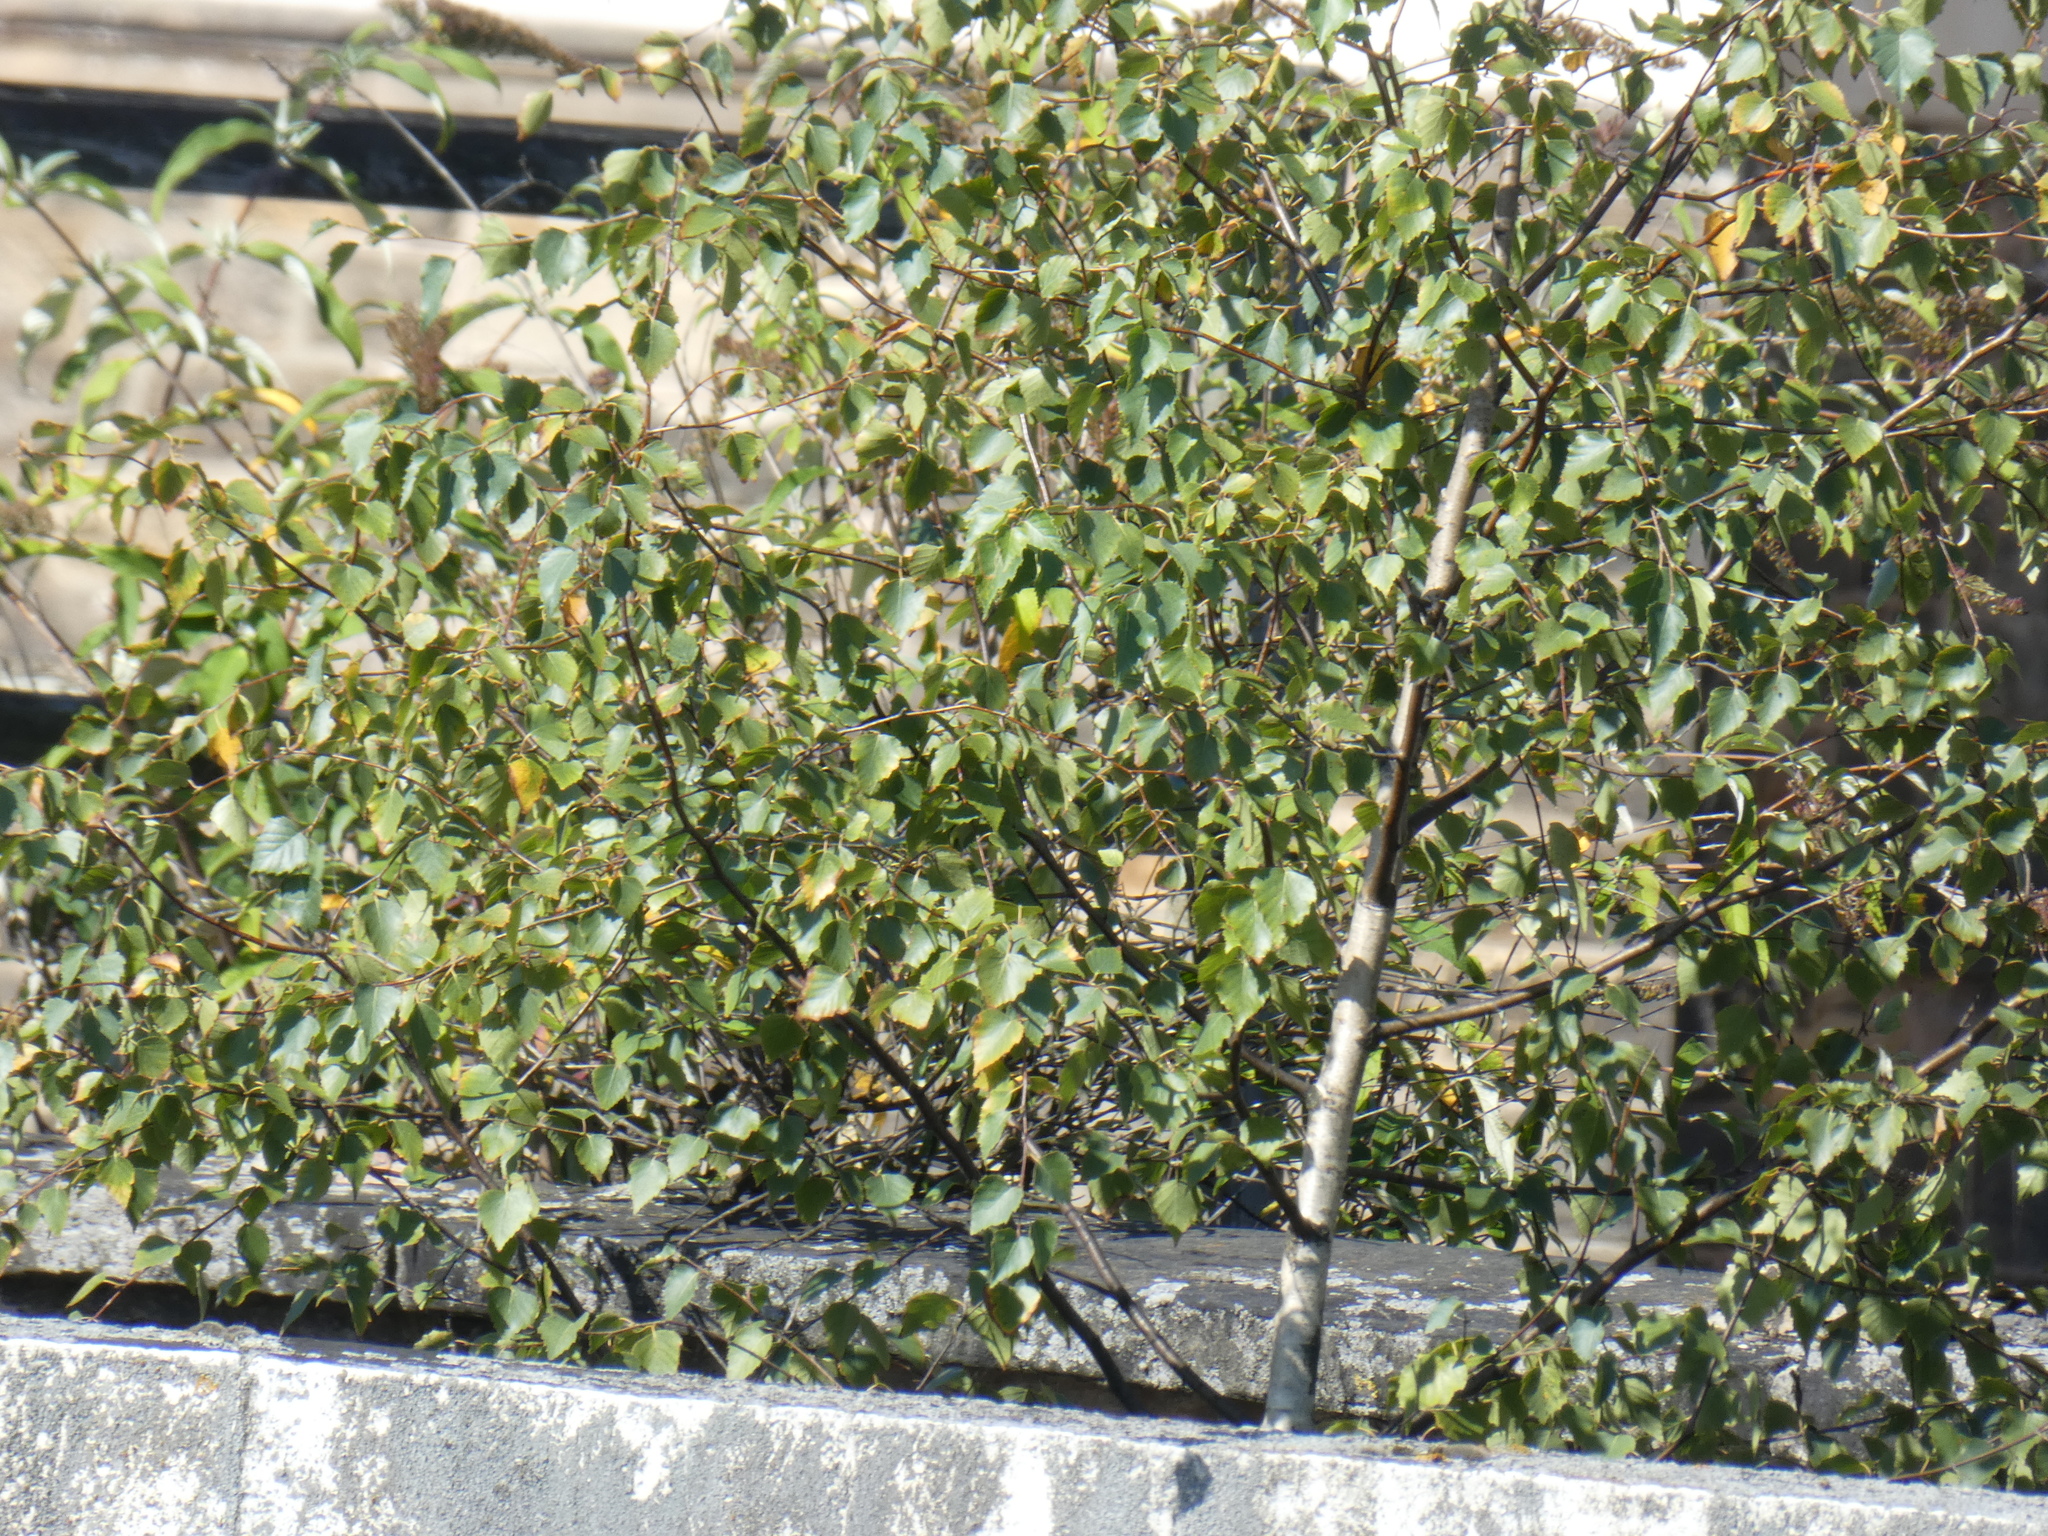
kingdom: Plantae
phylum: Tracheophyta
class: Magnoliopsida
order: Fagales
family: Betulaceae
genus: Betula
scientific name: Betula pendula
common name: Silver birch
